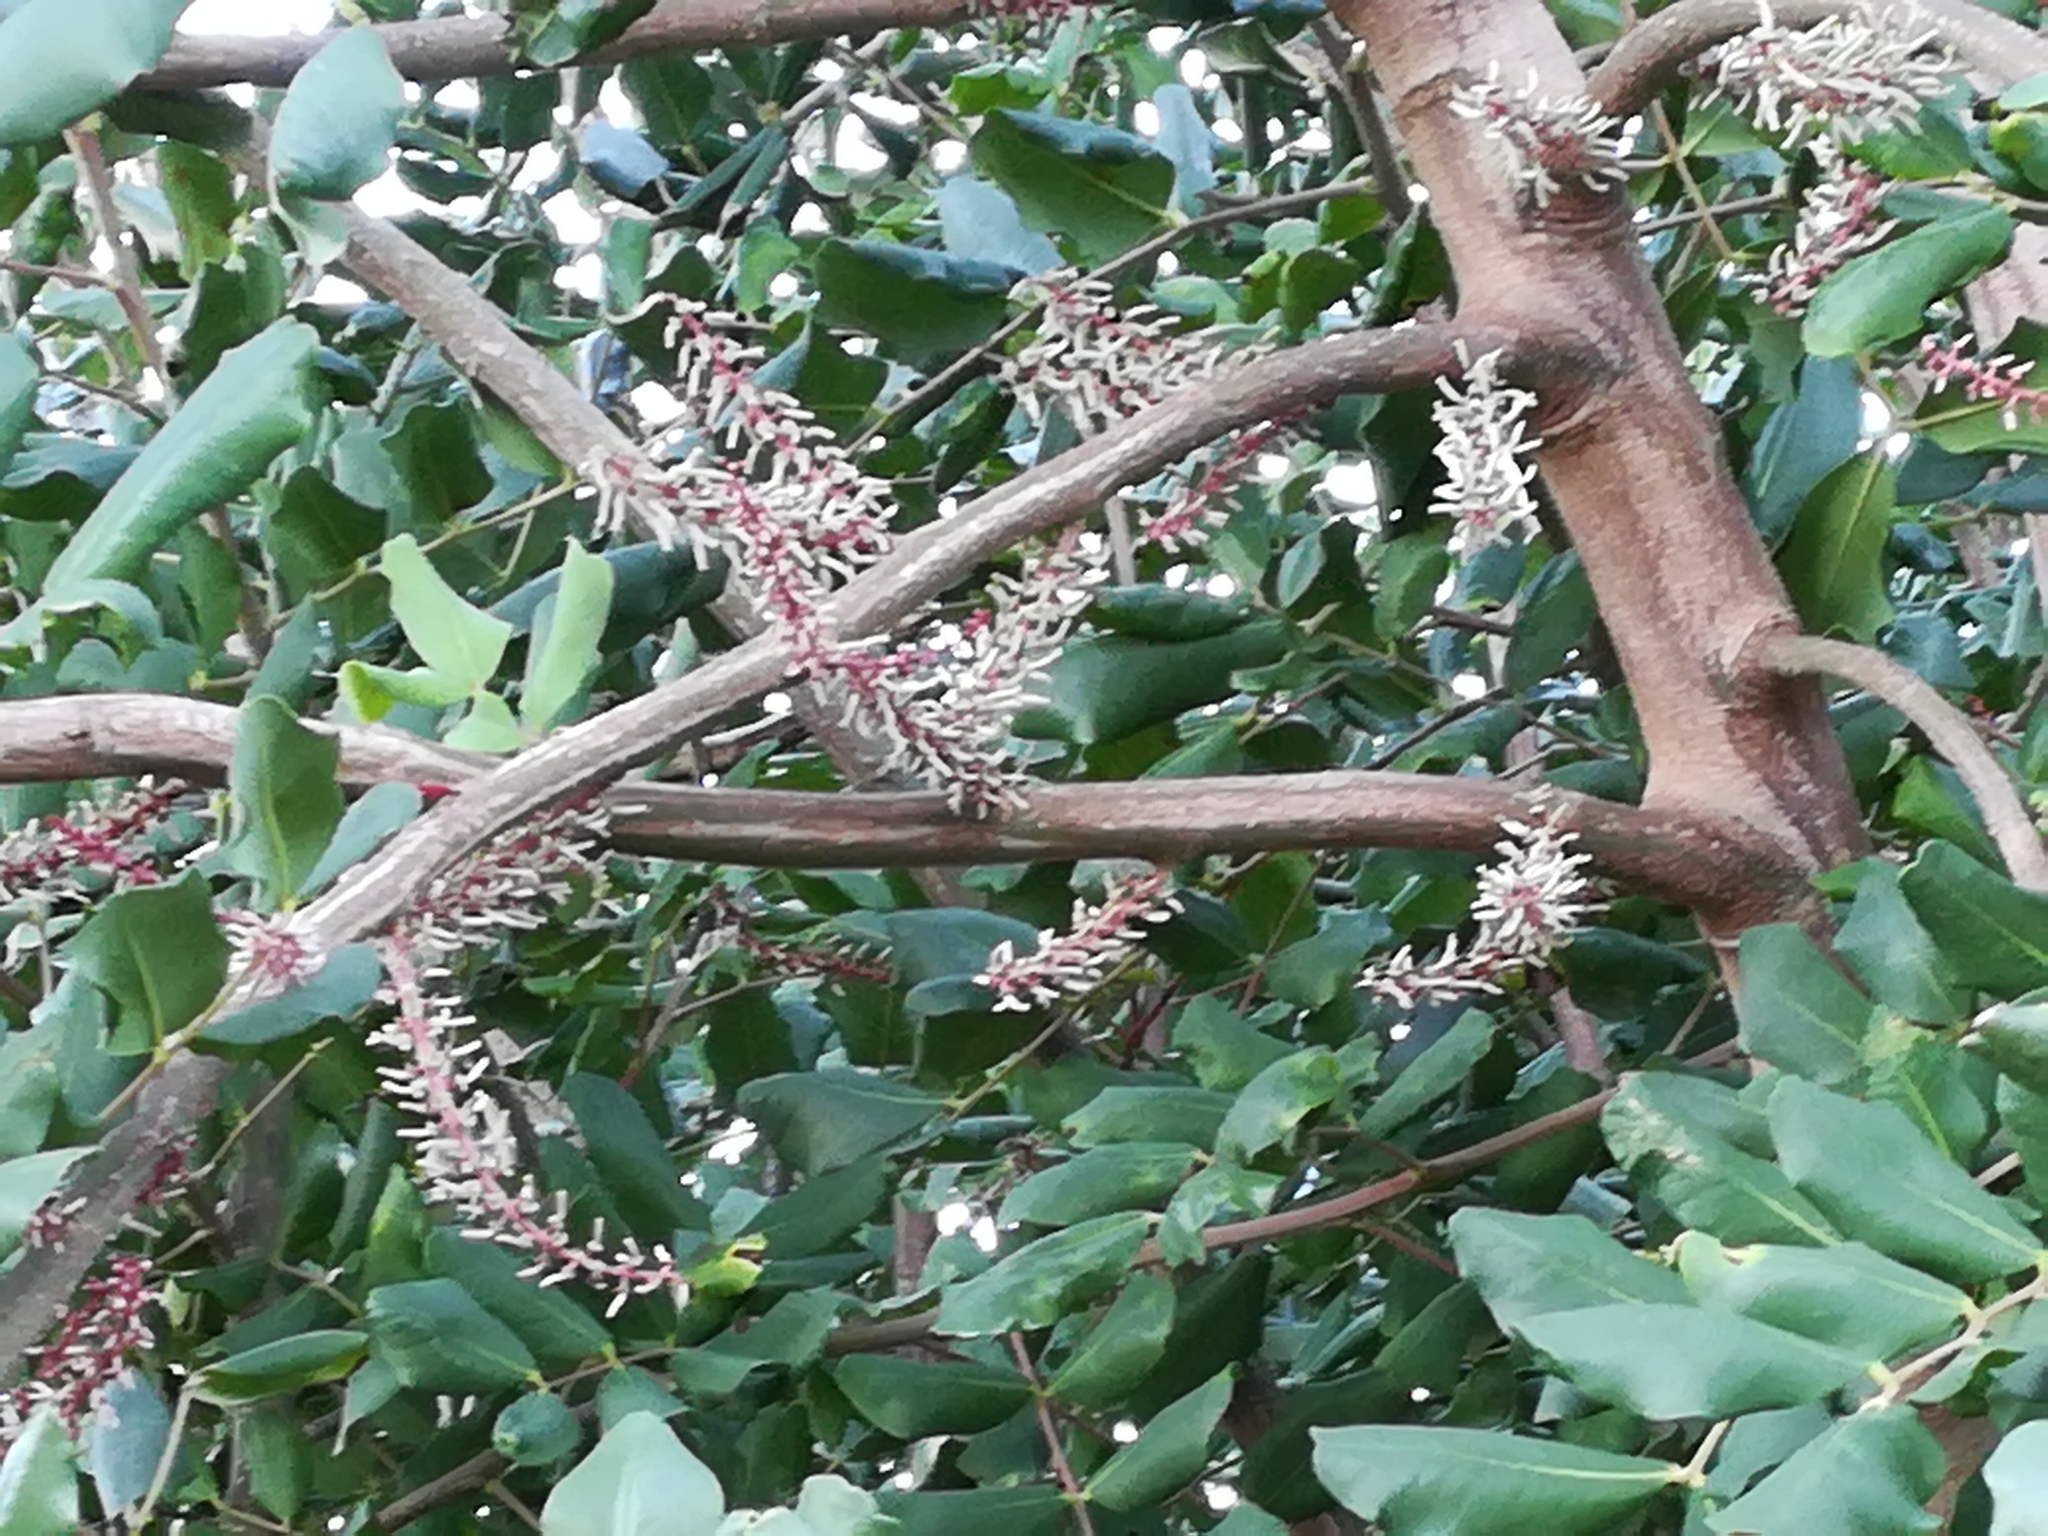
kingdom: Plantae
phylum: Tracheophyta
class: Magnoliopsida
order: Fabales
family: Fabaceae
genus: Ceratonia
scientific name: Ceratonia siliqua
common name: Carob
